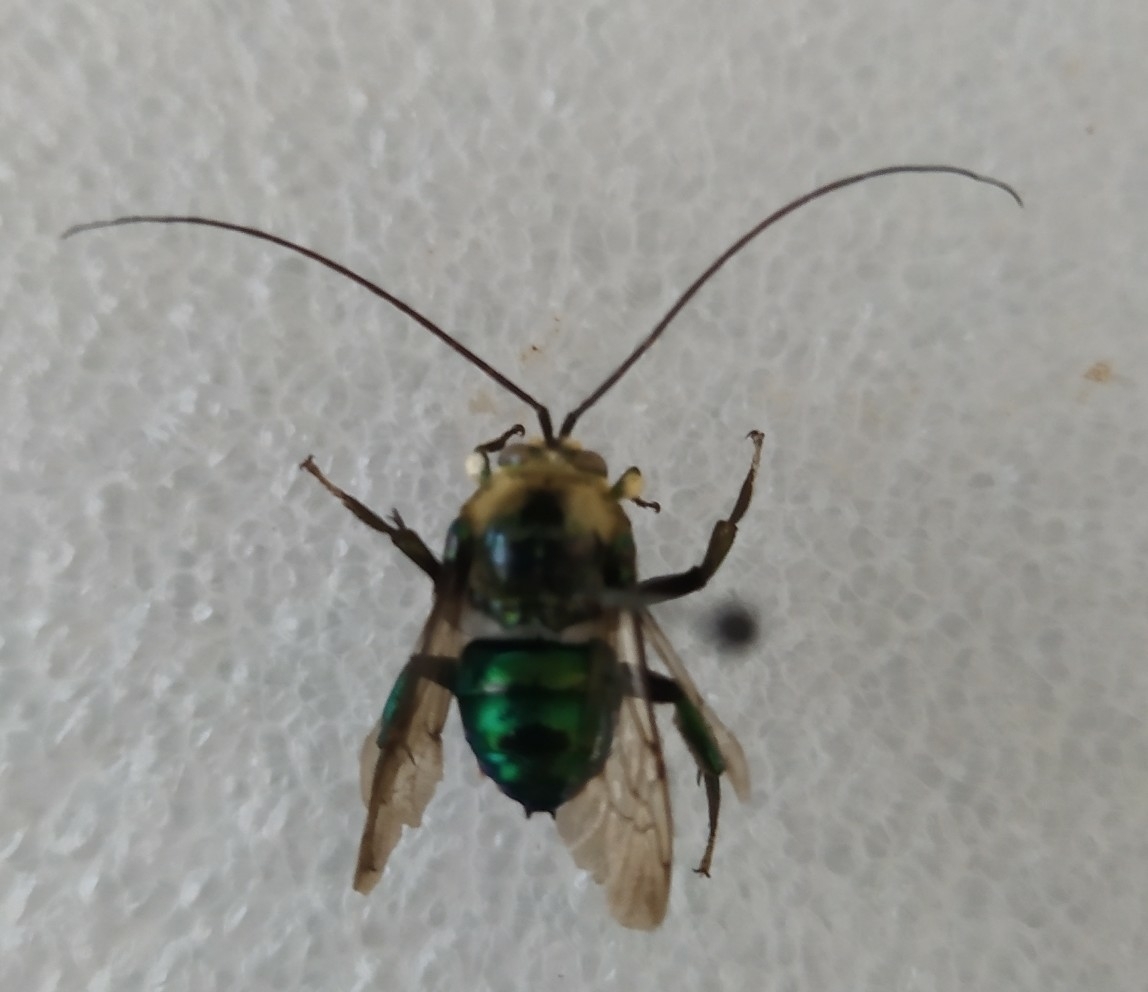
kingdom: Animalia
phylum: Arthropoda
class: Insecta
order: Hymenoptera
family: Apidae
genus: Ctenioschelus
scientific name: Ctenioschelus chalcodes
